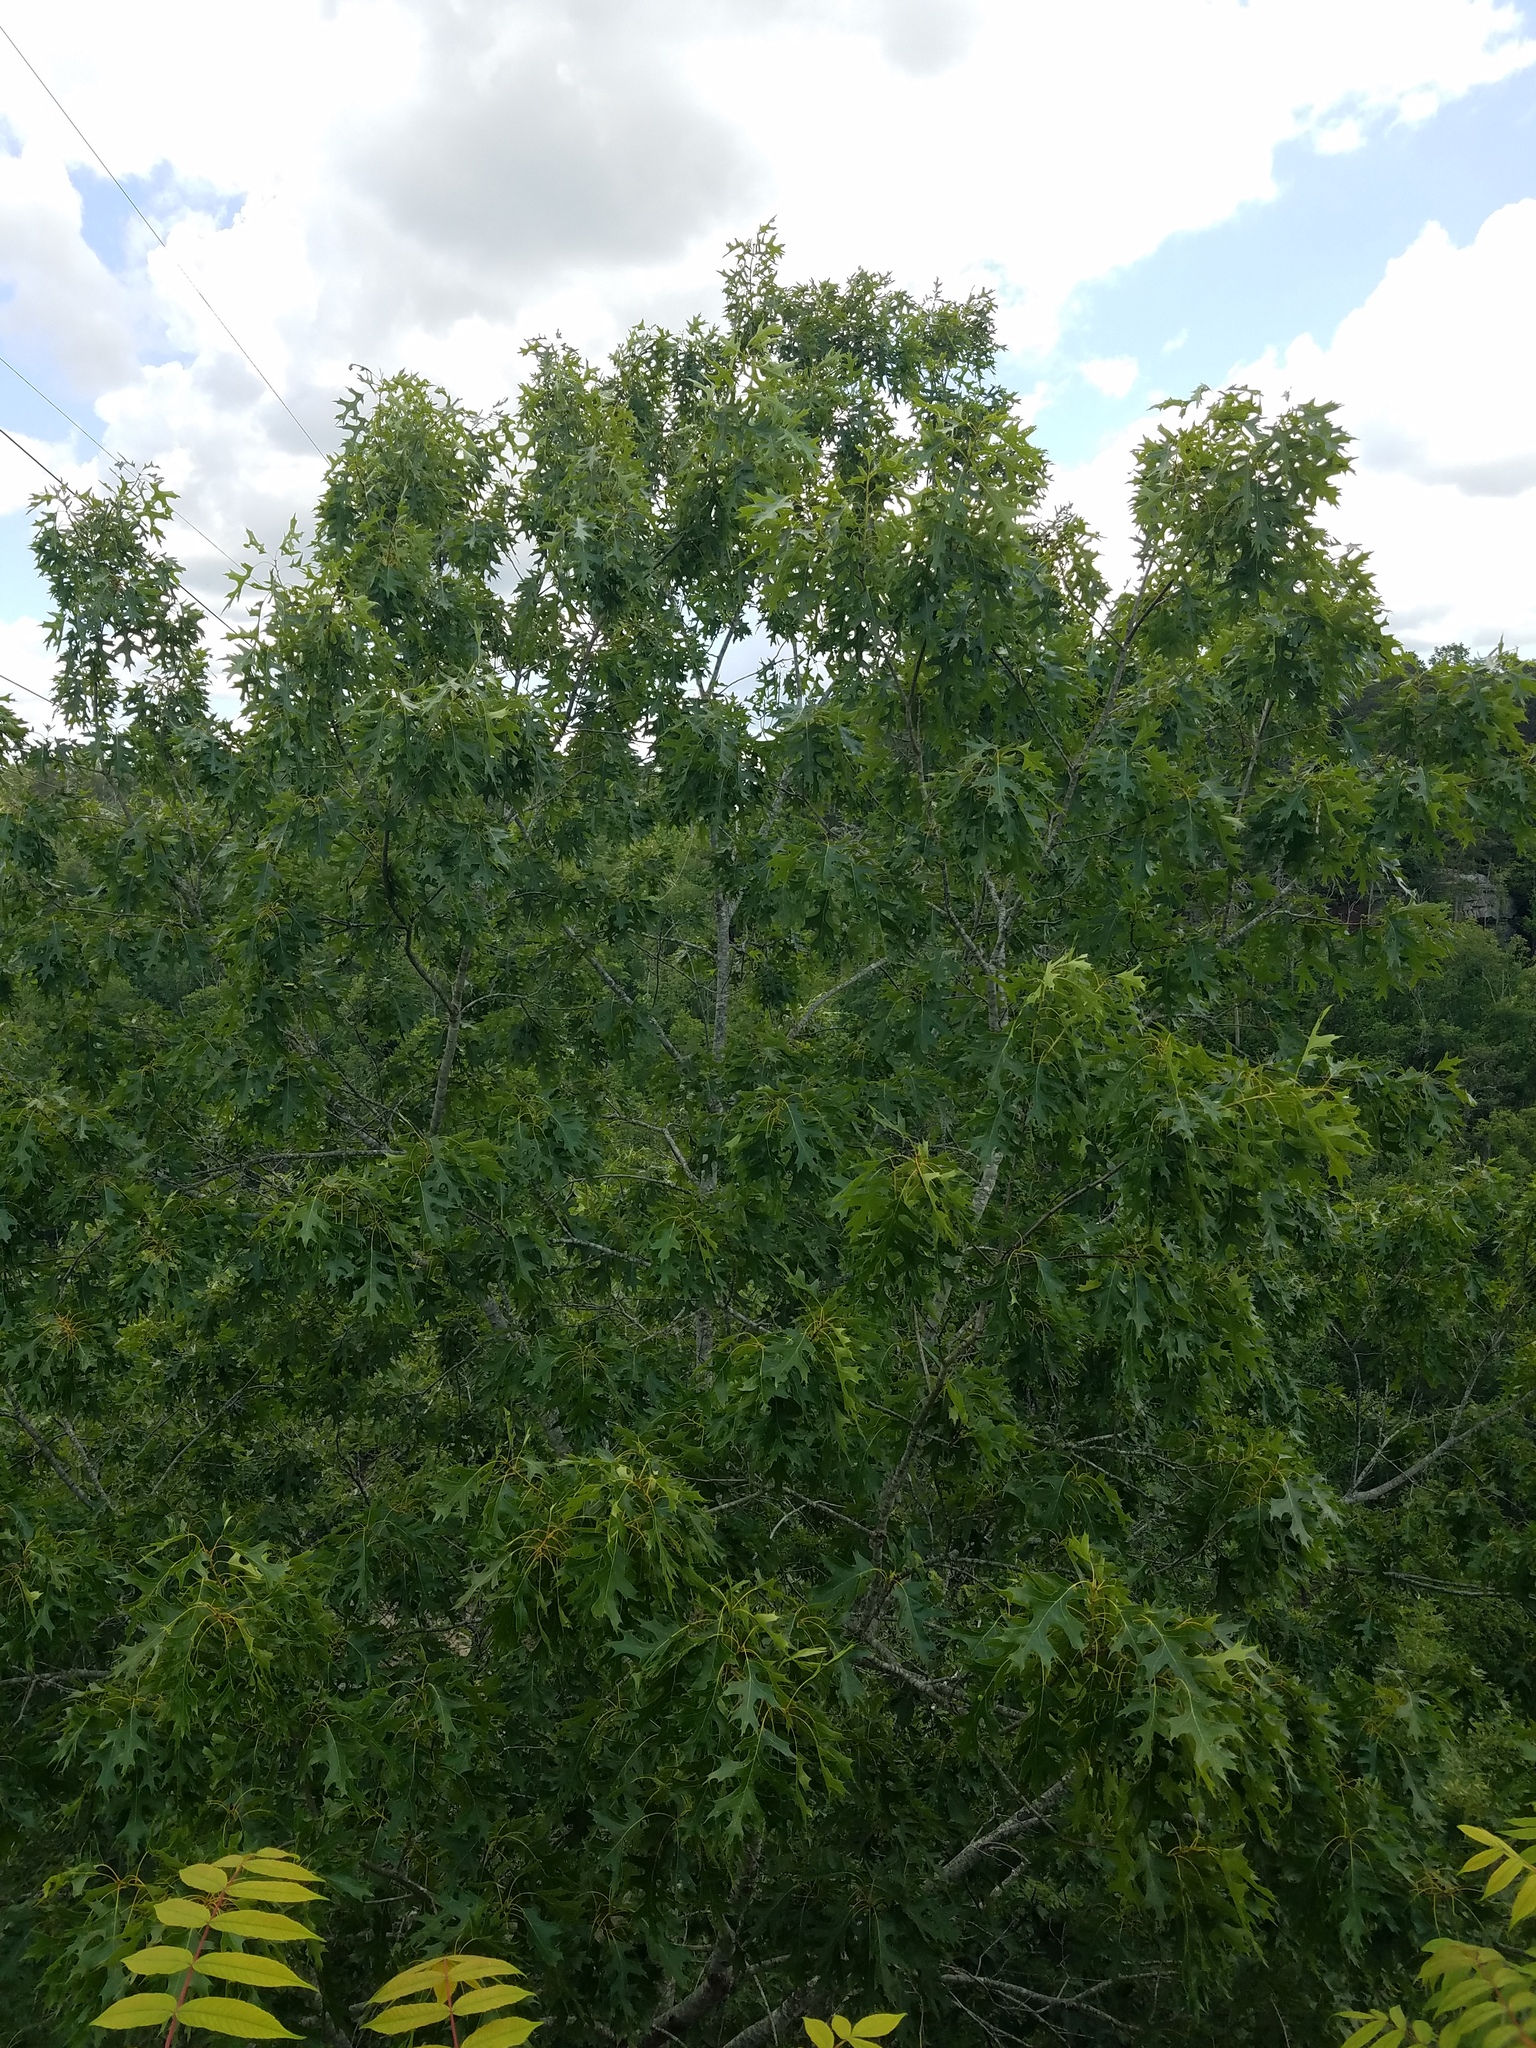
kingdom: Plantae
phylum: Tracheophyta
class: Magnoliopsida
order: Fagales
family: Fagaceae
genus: Quercus
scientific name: Quercus coccinea
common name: Scarlet oak
